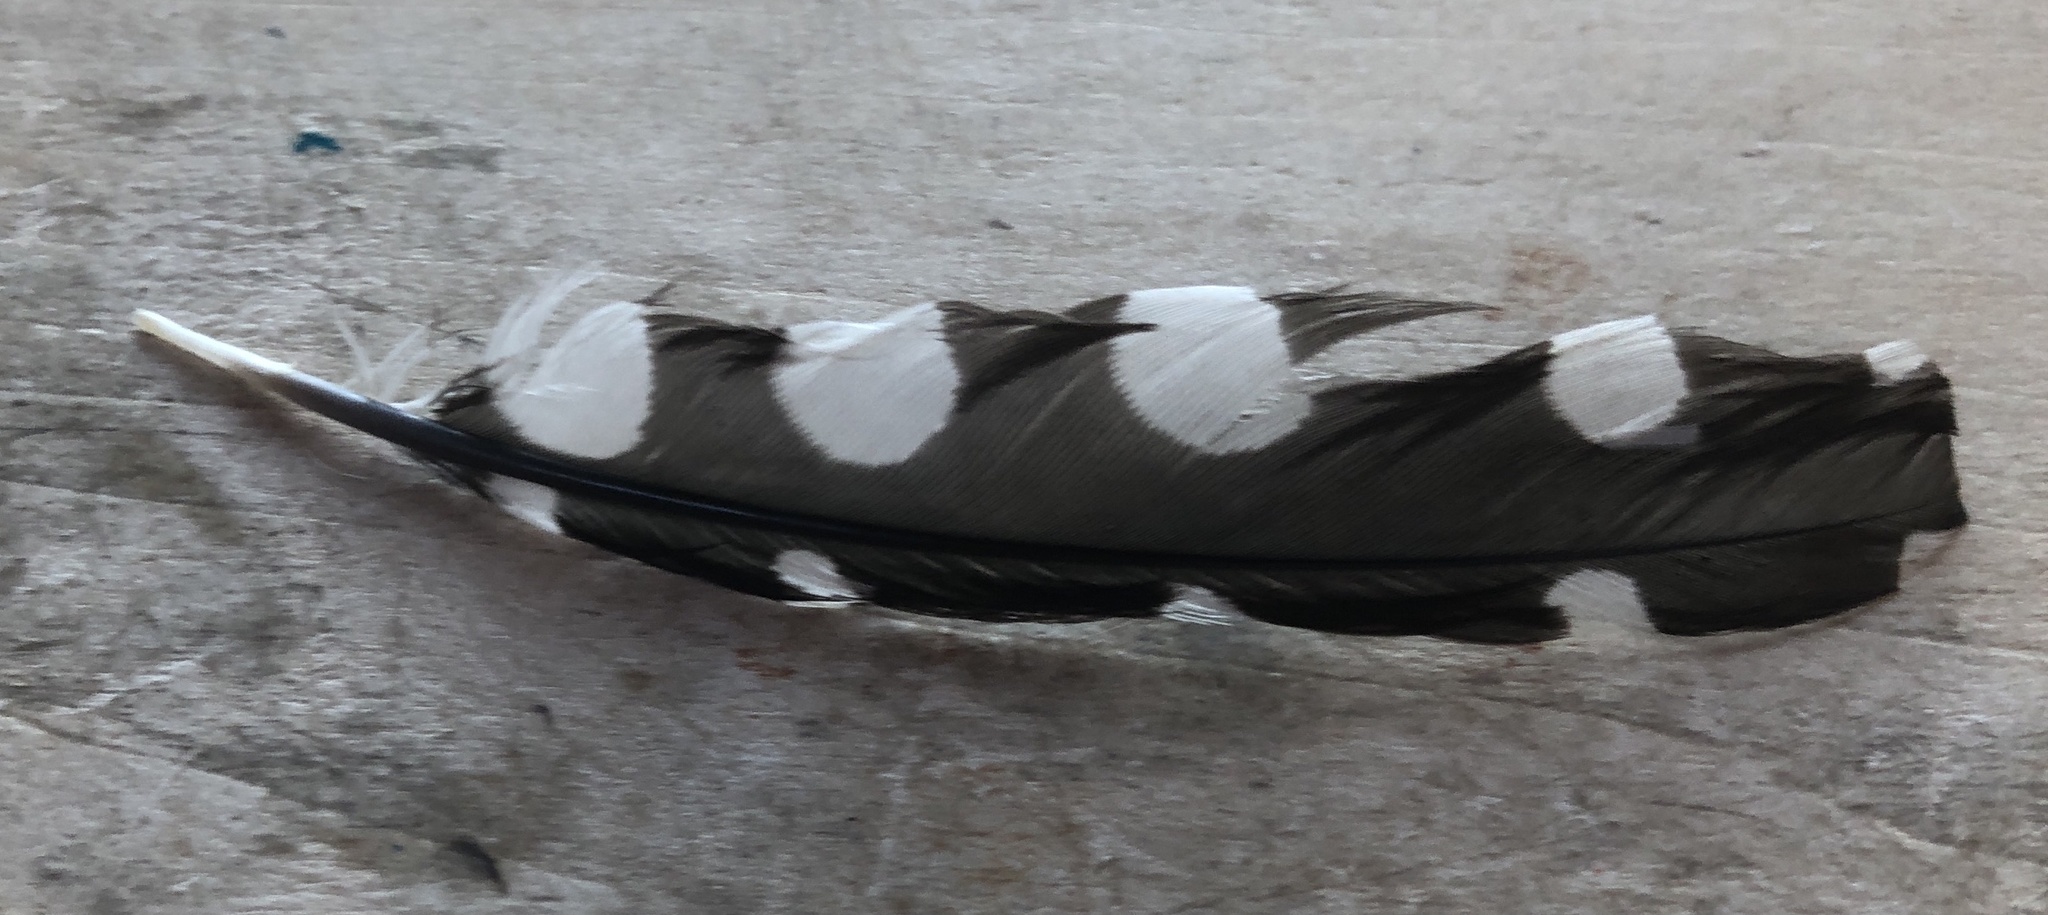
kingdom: Animalia
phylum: Chordata
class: Aves
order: Piciformes
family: Picidae
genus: Dryobates
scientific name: Dryobates pubescens
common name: Downy woodpecker
